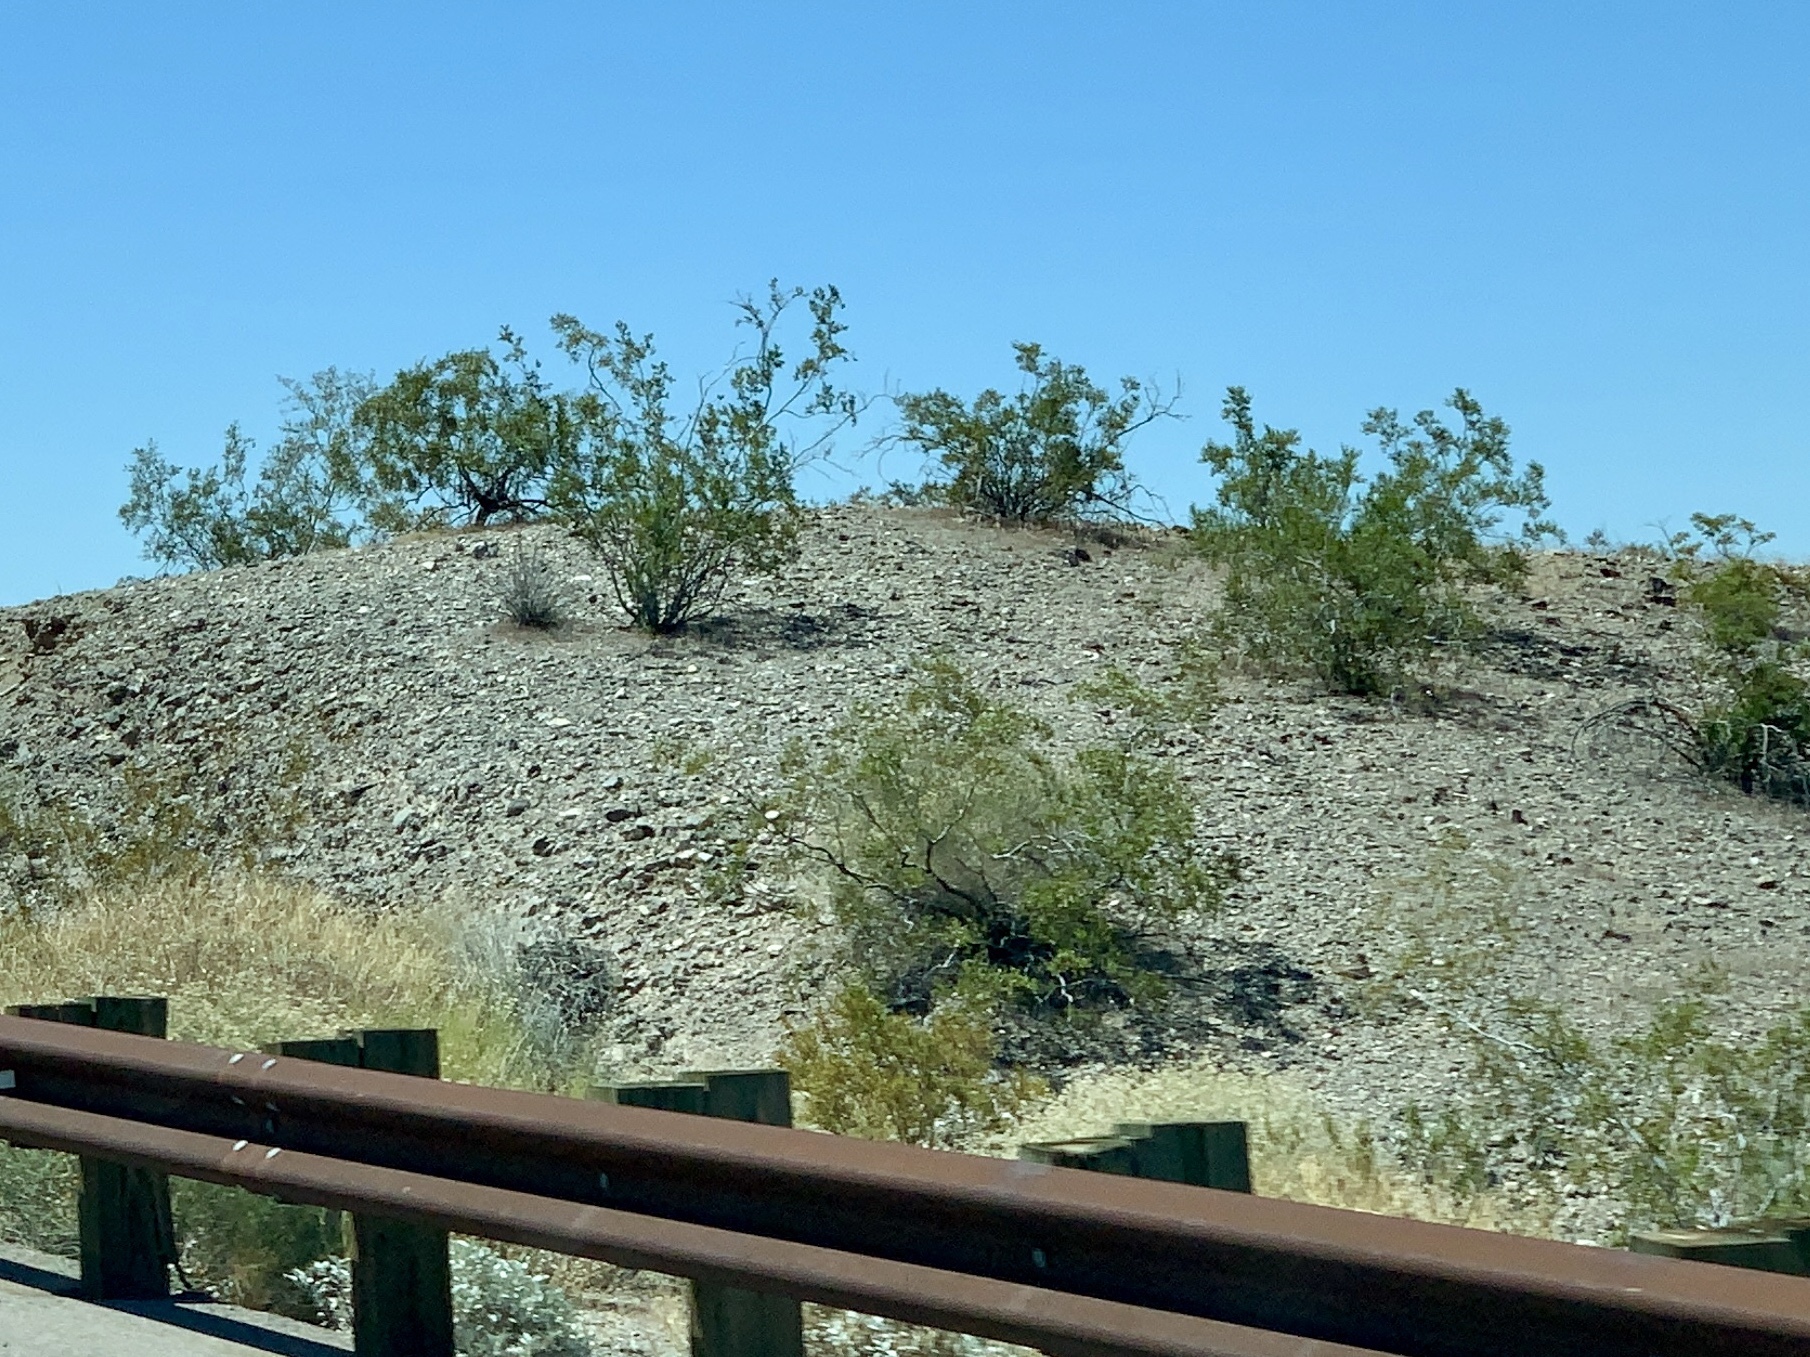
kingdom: Plantae
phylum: Tracheophyta
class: Magnoliopsida
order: Zygophyllales
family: Zygophyllaceae
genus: Larrea
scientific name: Larrea tridentata
